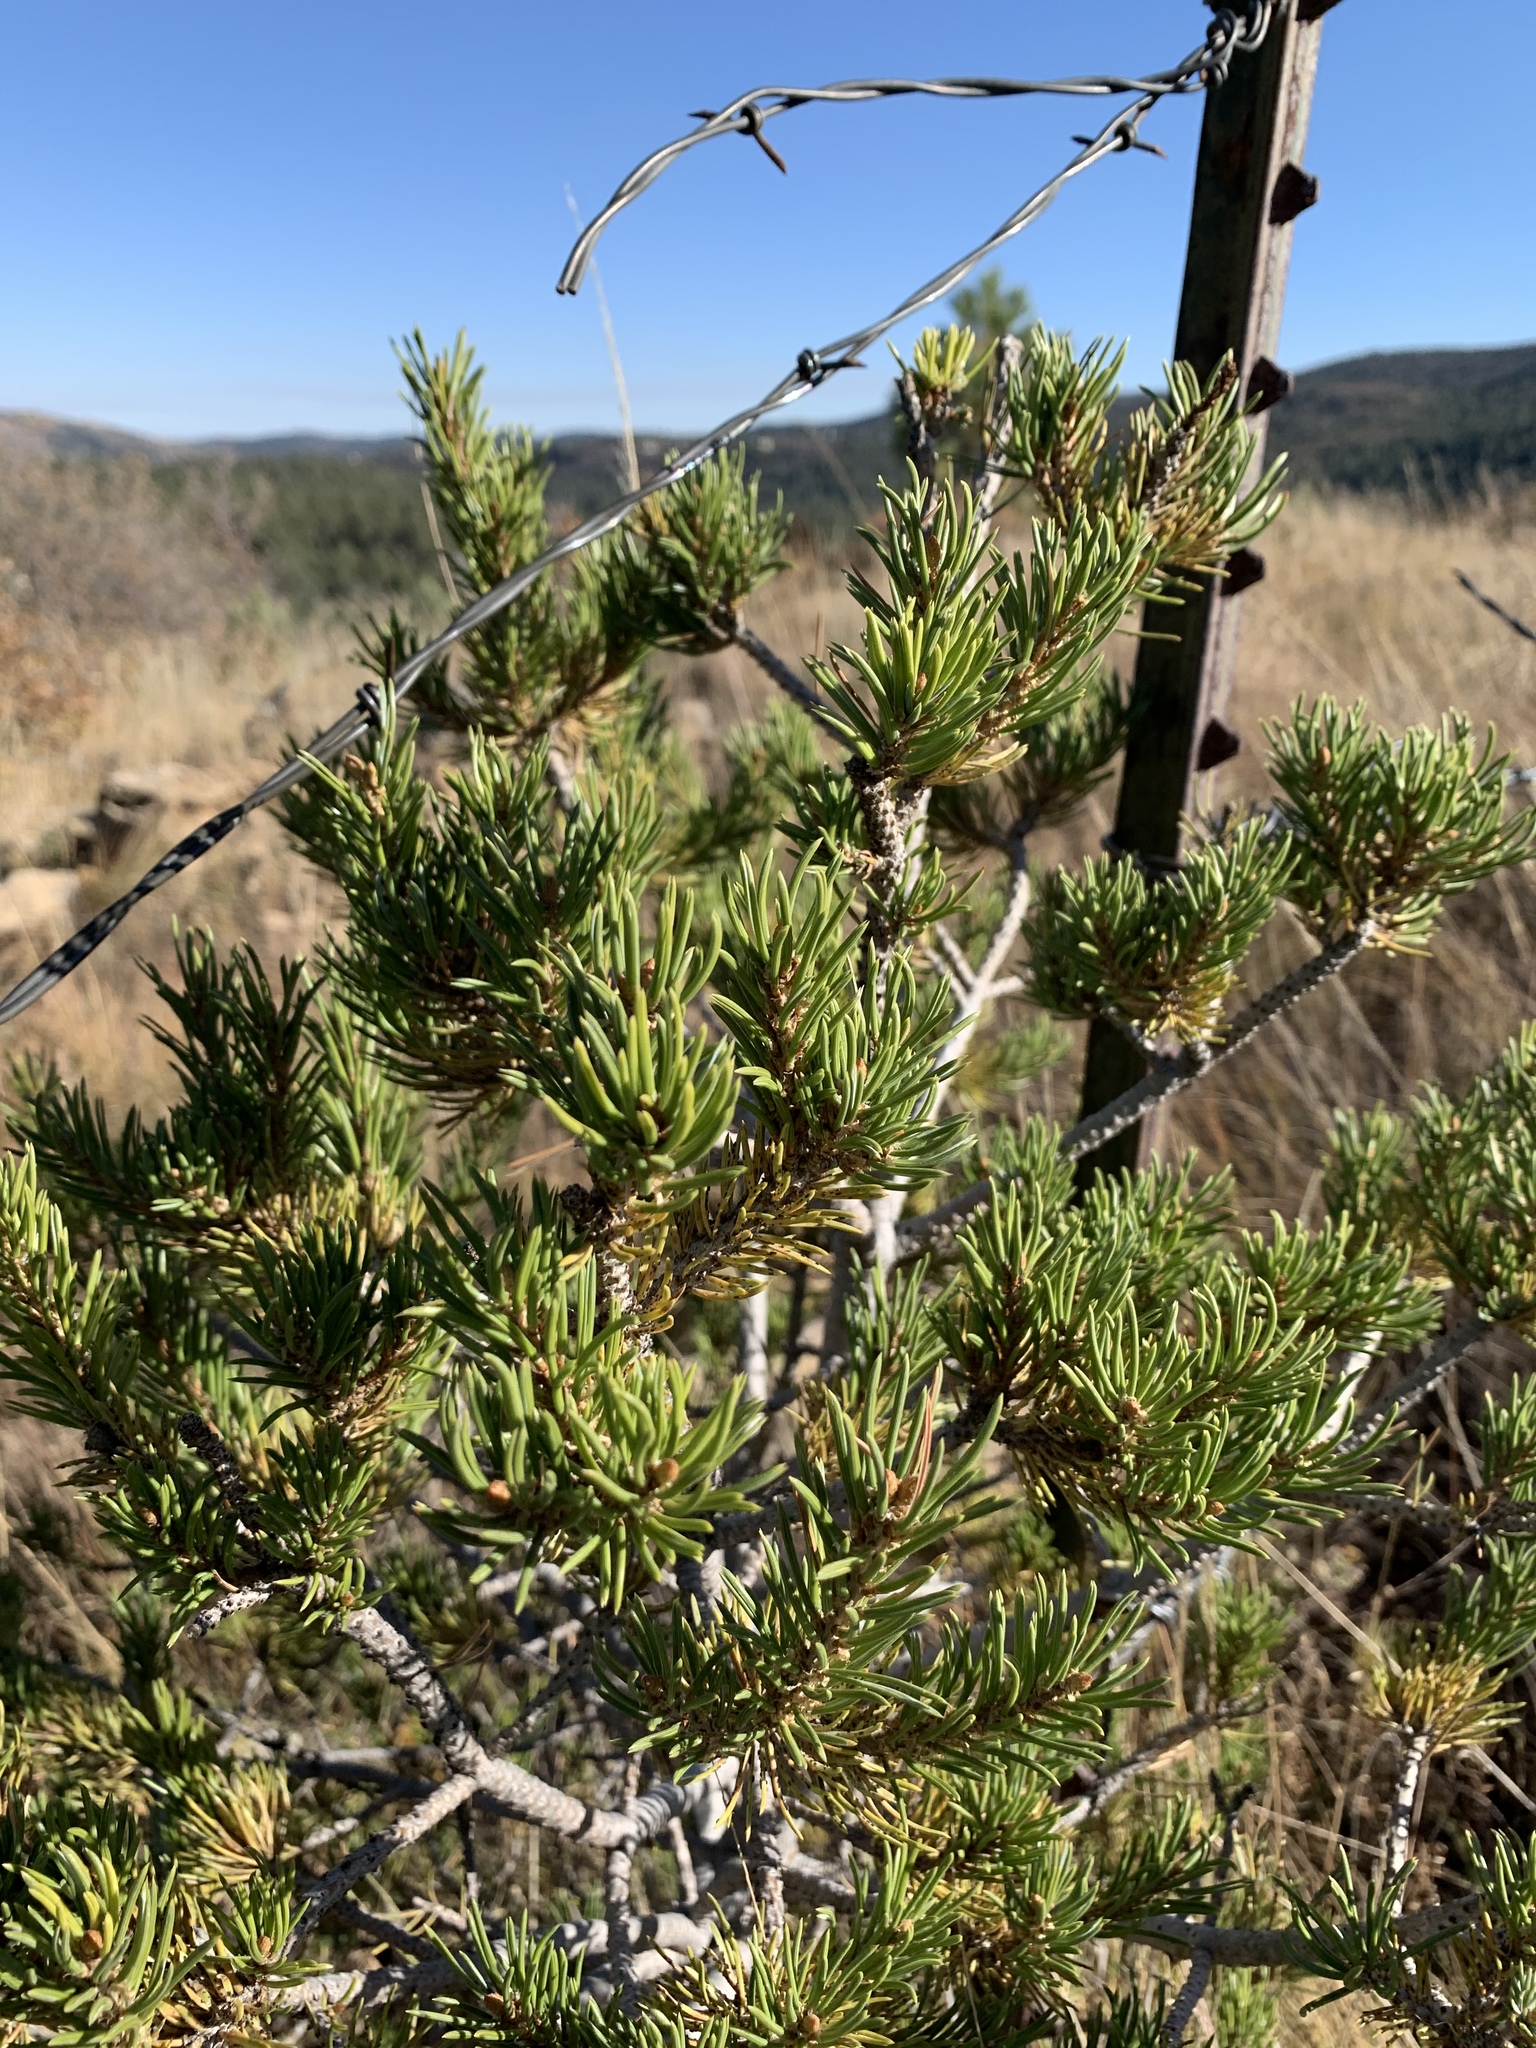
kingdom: Plantae
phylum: Tracheophyta
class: Pinopsida
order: Pinales
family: Pinaceae
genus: Pinus
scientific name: Pinus edulis
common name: Colorado pinyon
